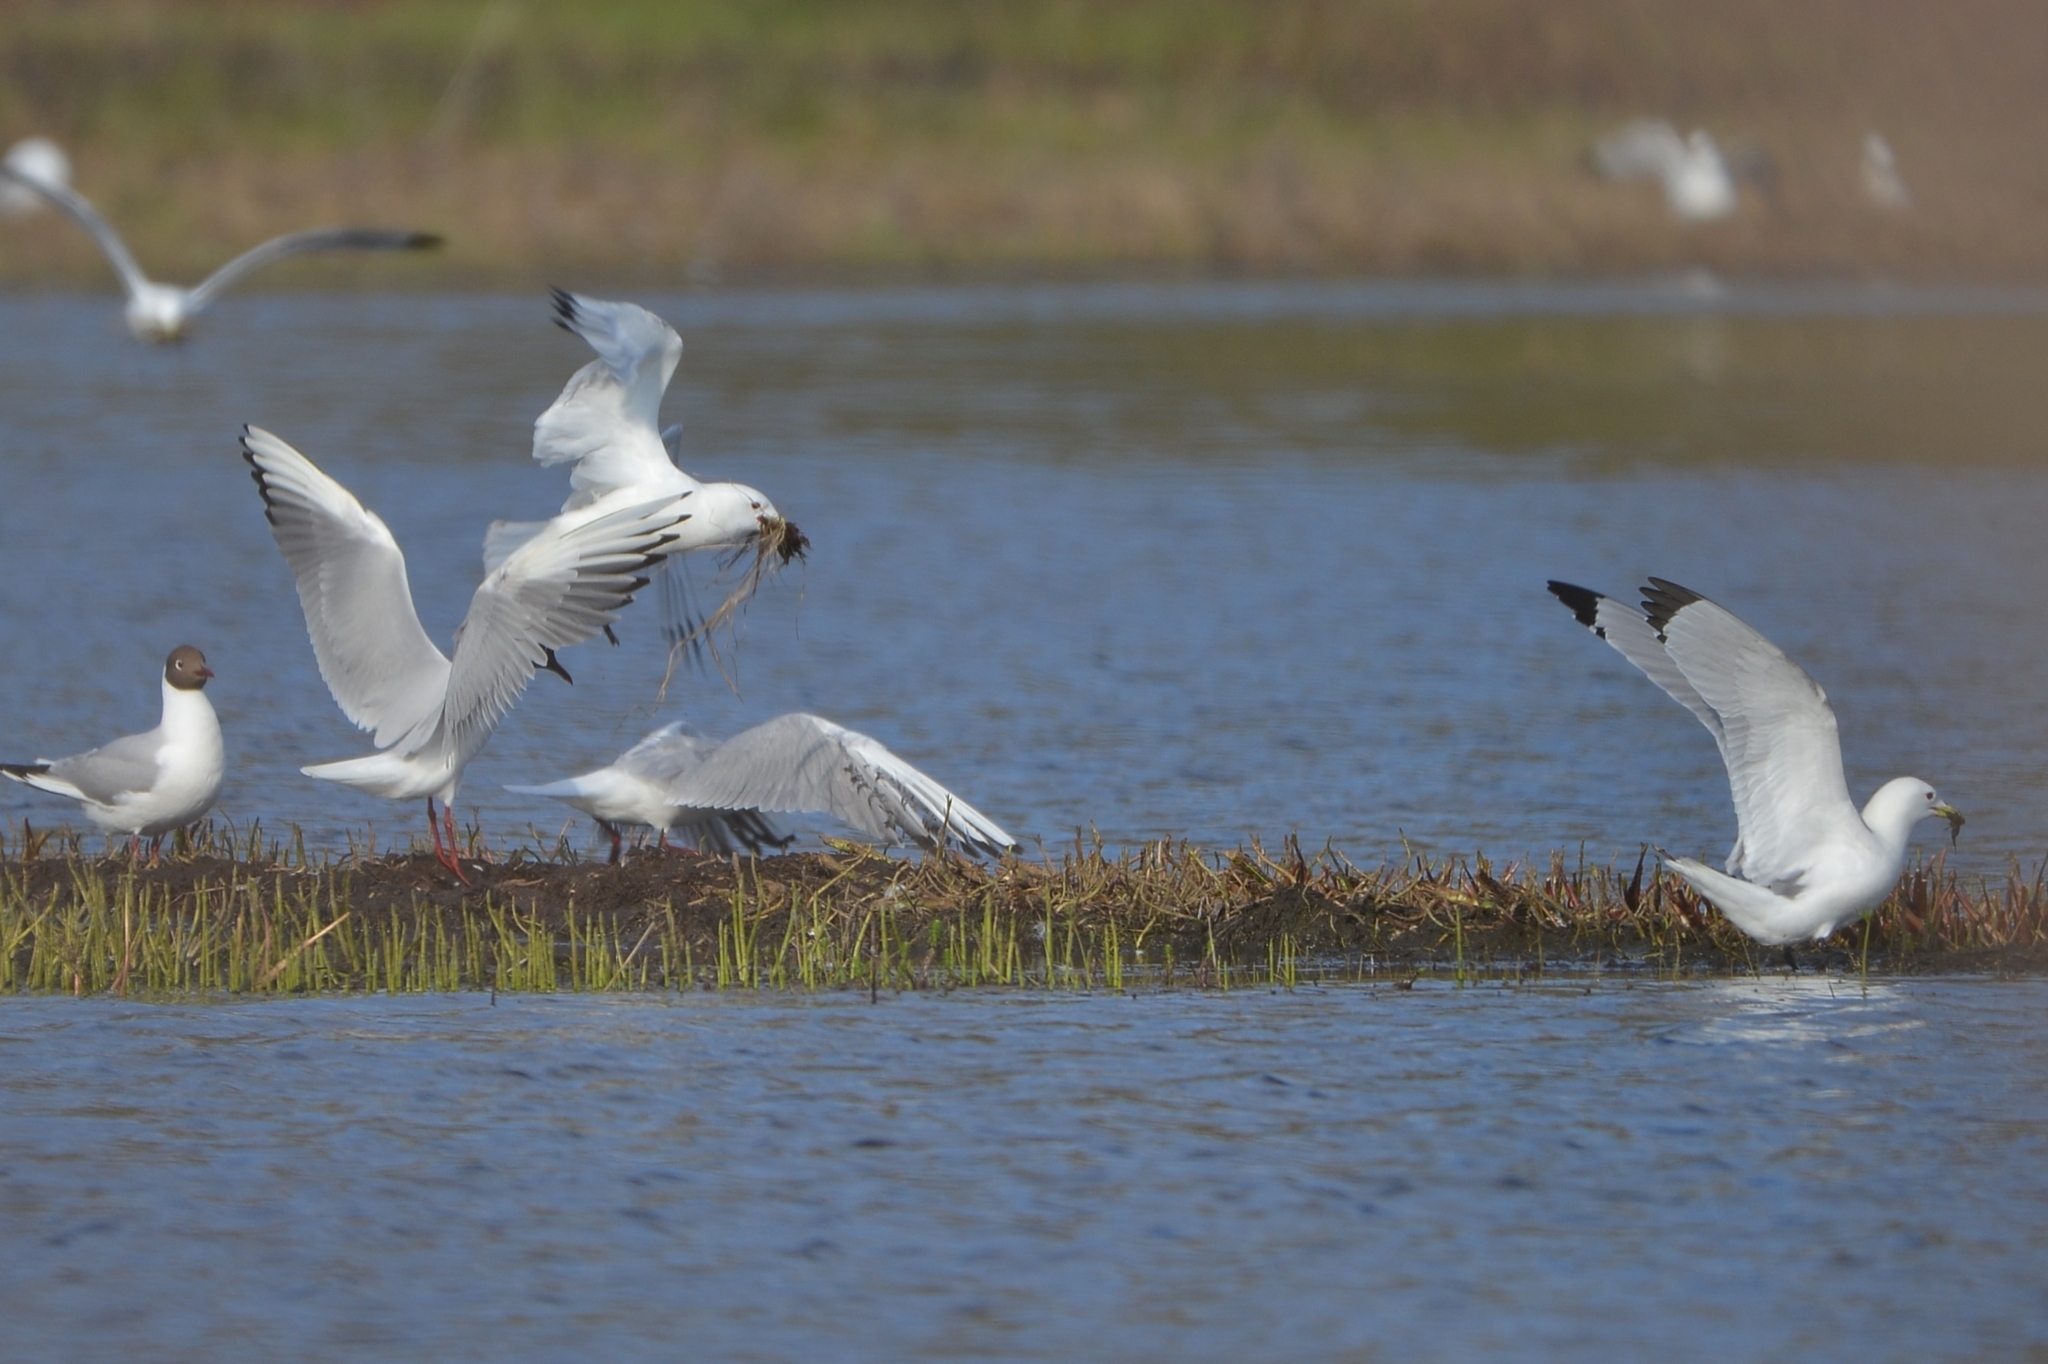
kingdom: Animalia
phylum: Chordata
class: Aves
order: Charadriiformes
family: Laridae
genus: Rissa
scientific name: Rissa tridactyla
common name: Black-legged kittiwake
